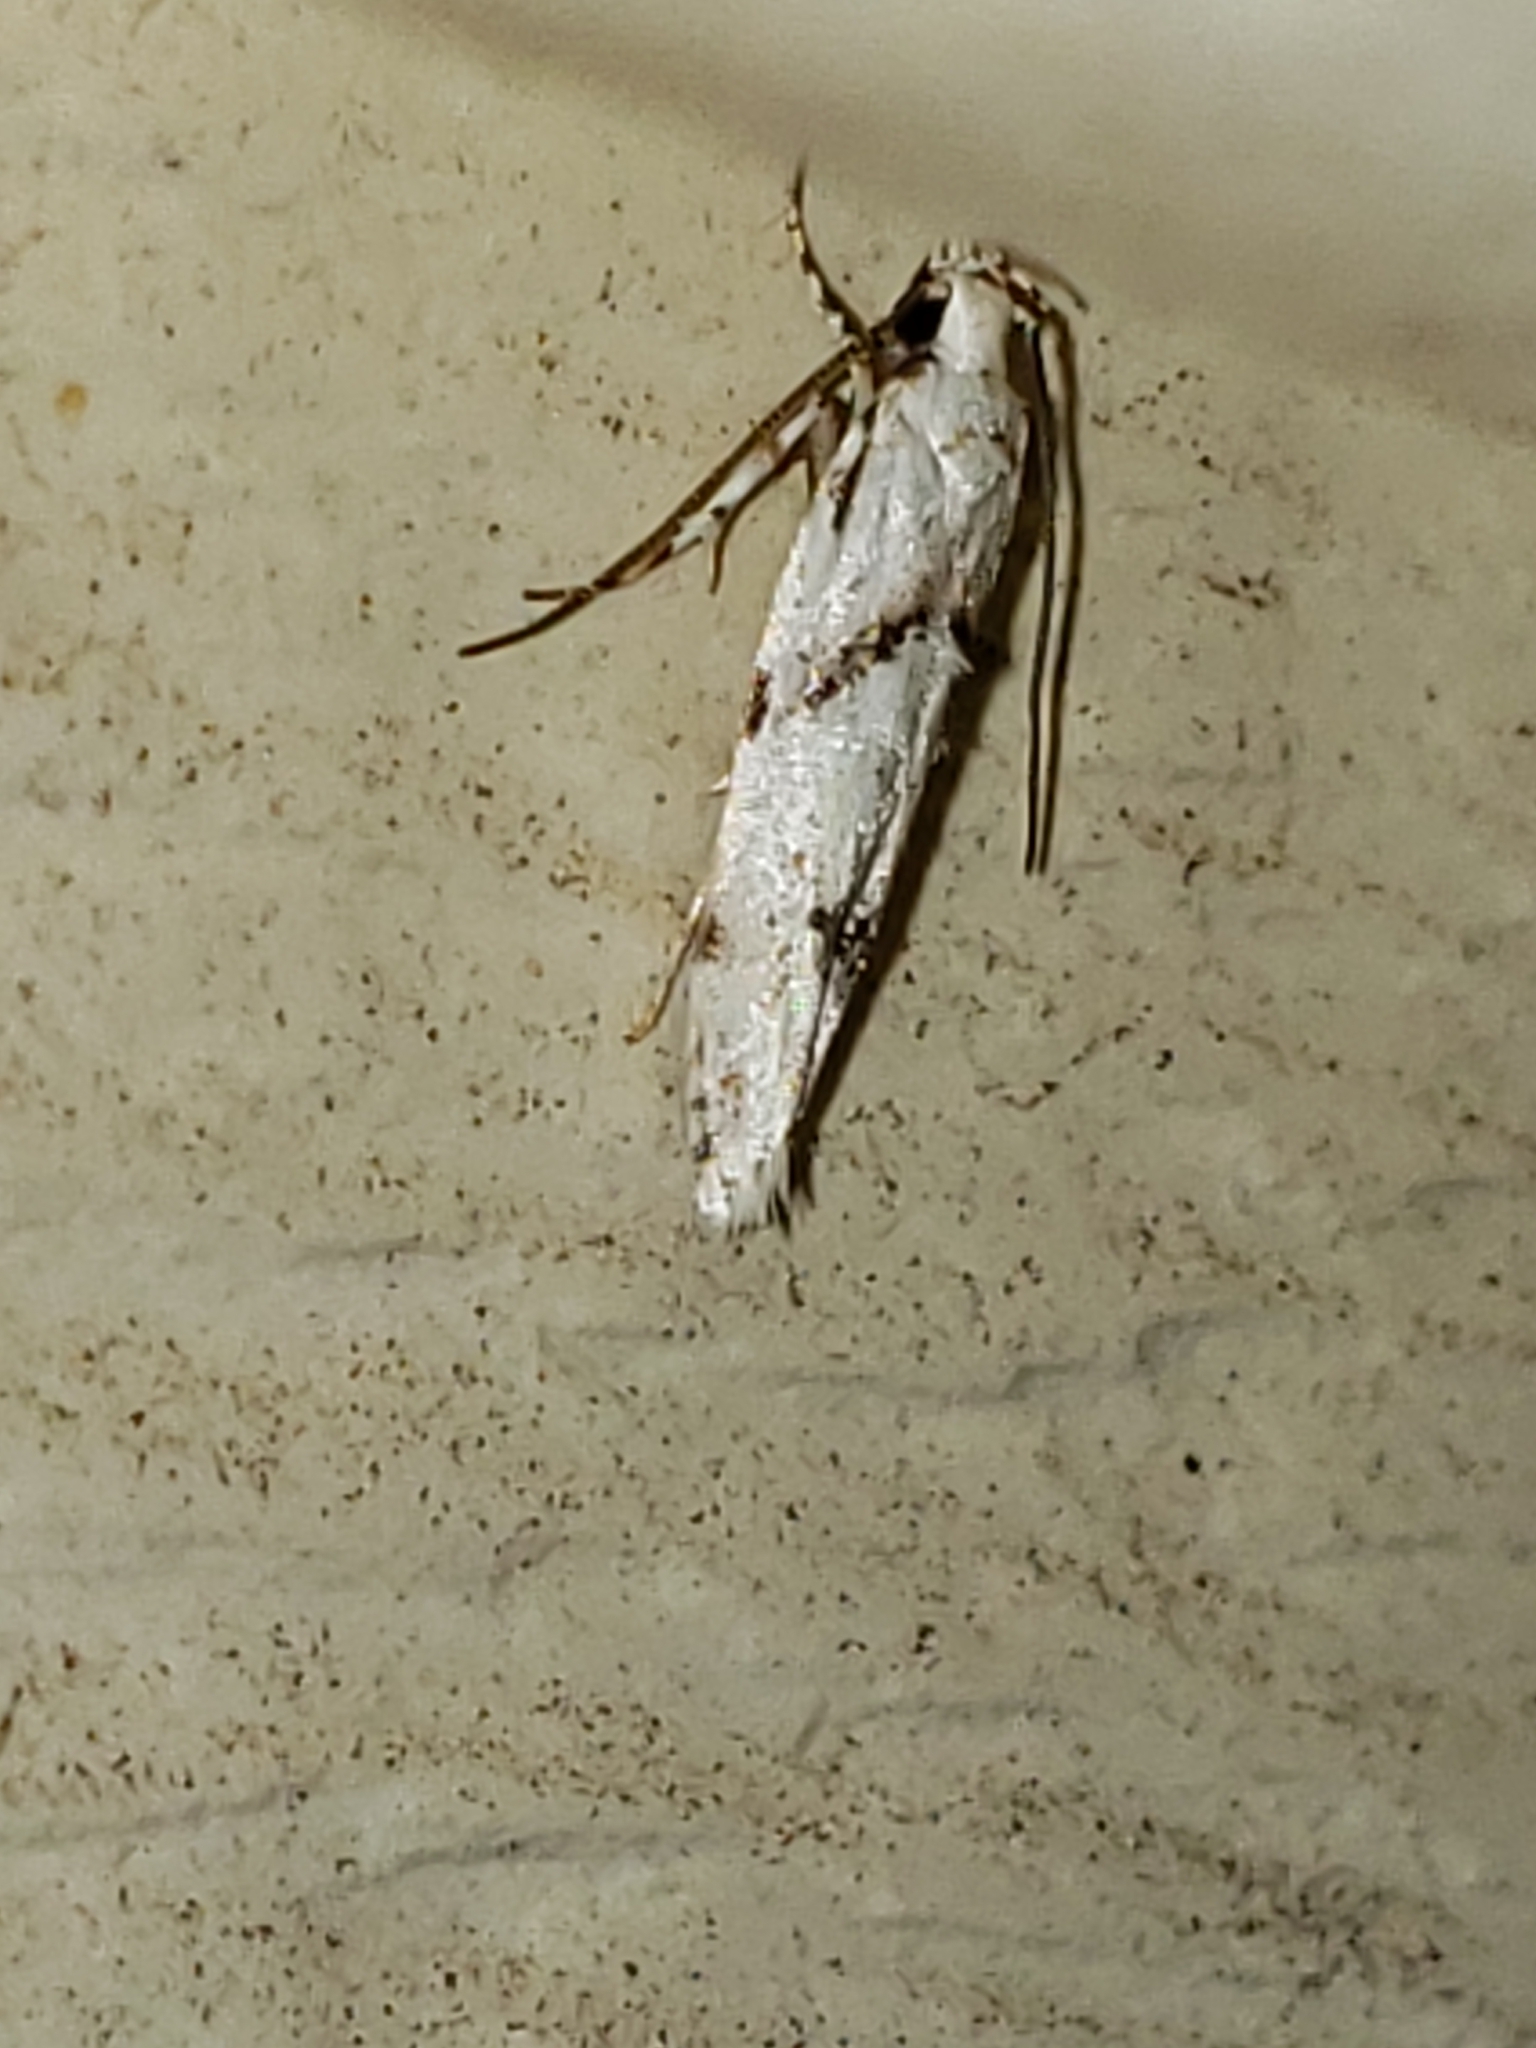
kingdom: Animalia
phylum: Arthropoda
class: Insecta
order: Lepidoptera
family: Gelechiidae
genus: Arogalea
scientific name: Arogalea cristifasciella
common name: White stripe-backed moth
